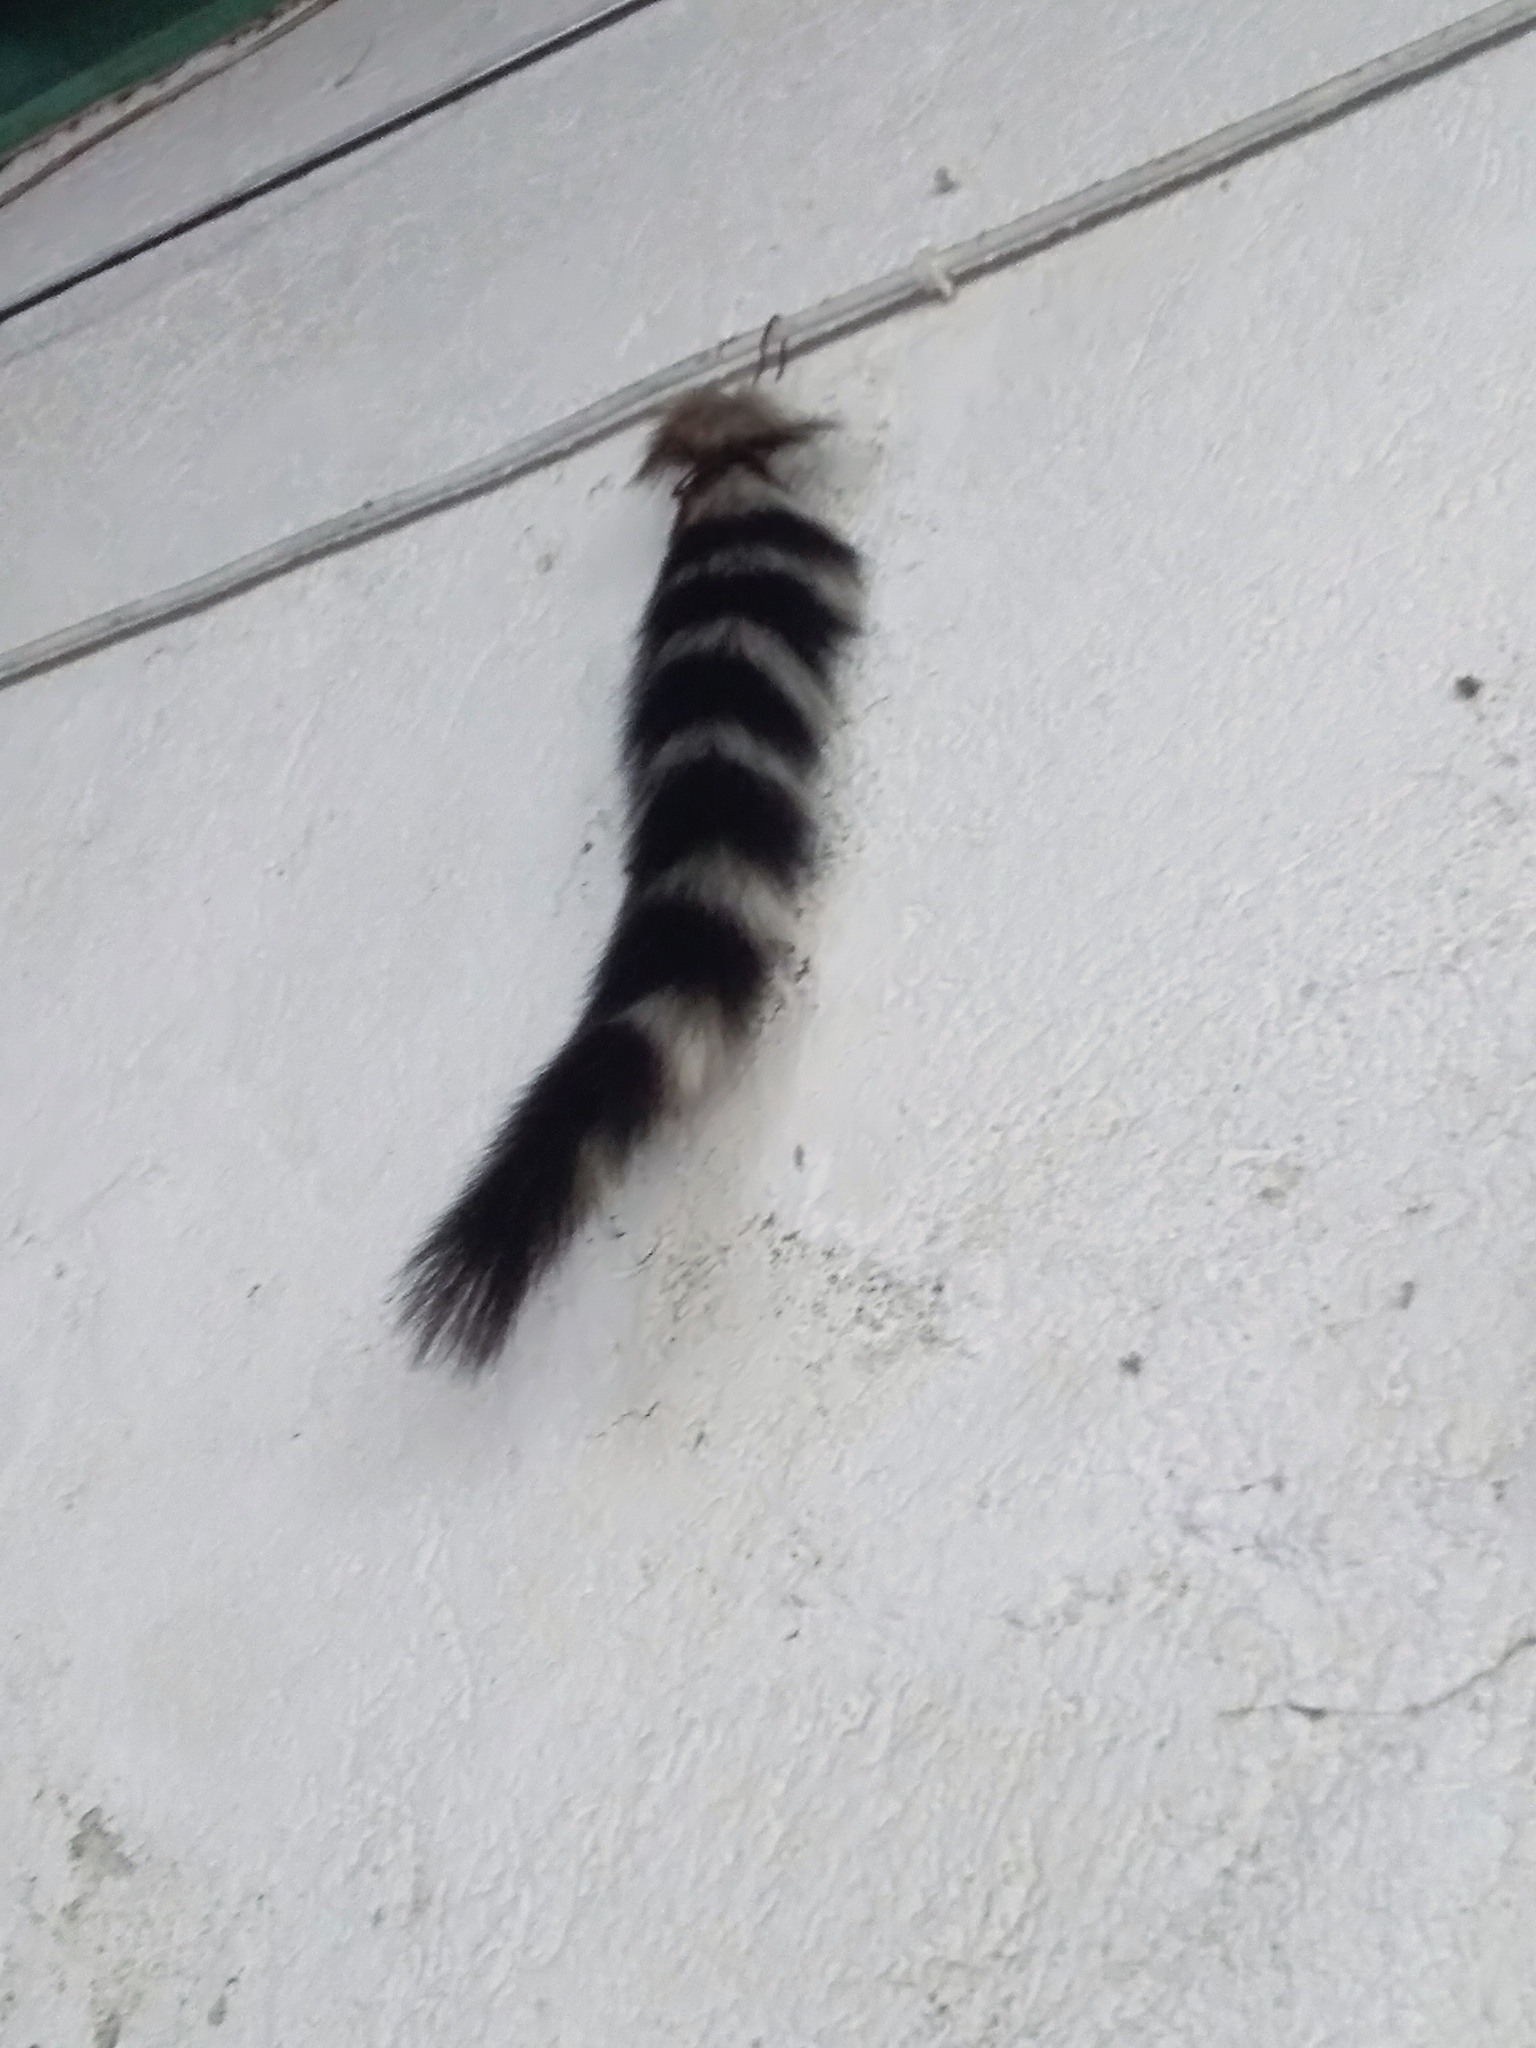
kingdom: Animalia
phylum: Chordata
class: Mammalia
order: Carnivora
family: Procyonidae
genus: Bassariscus
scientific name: Bassariscus astutus
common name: Ringtail
